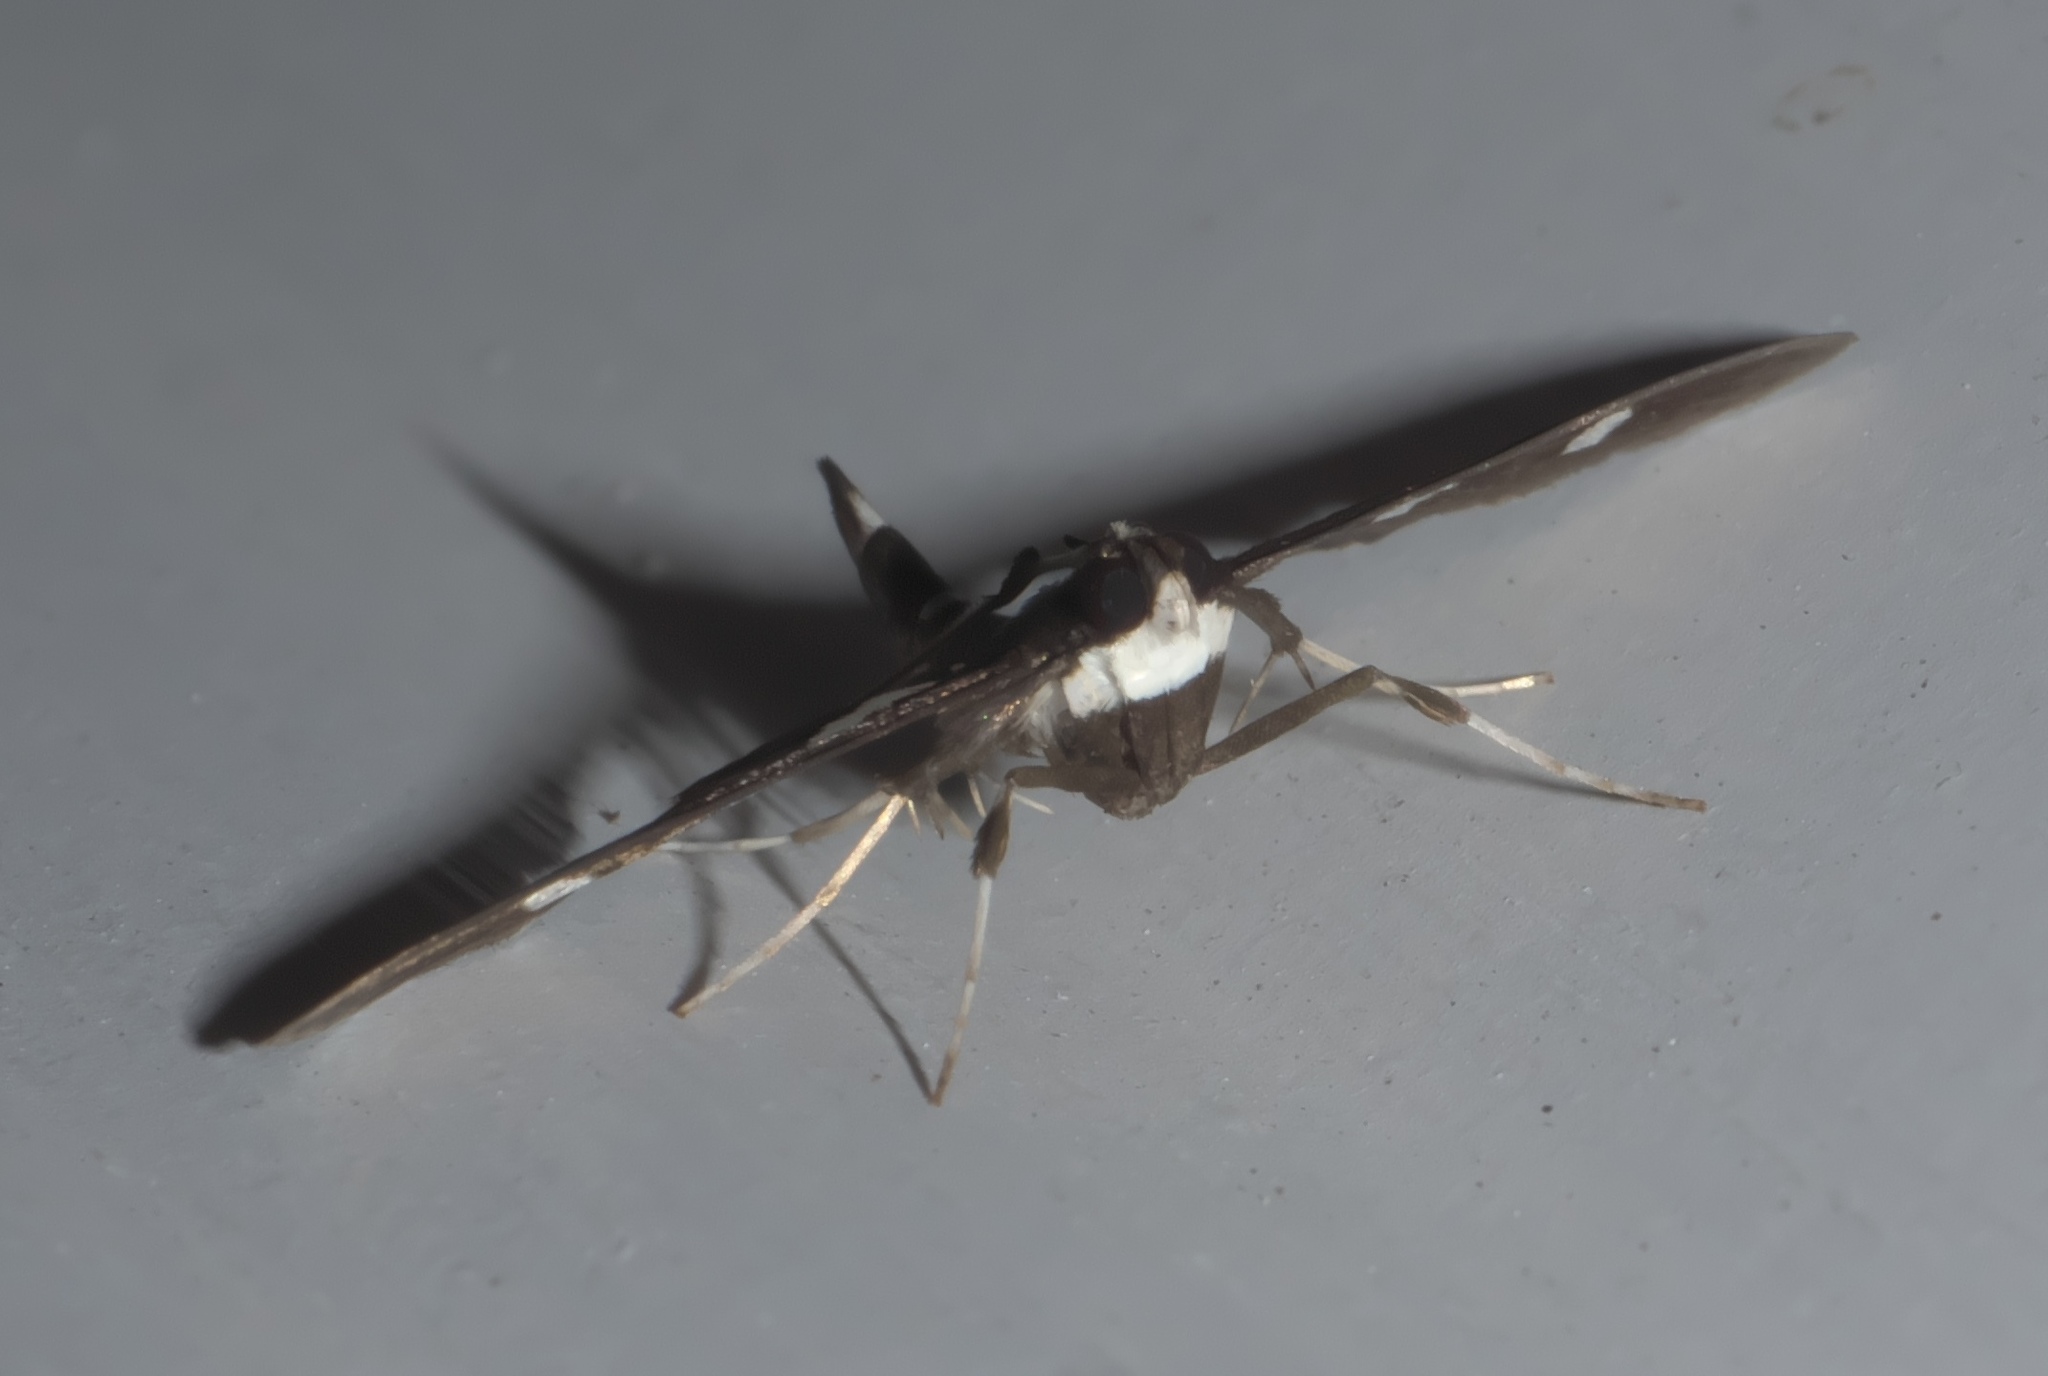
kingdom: Animalia
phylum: Arthropoda
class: Insecta
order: Lepidoptera
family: Crambidae
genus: Desmia
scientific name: Desmia
